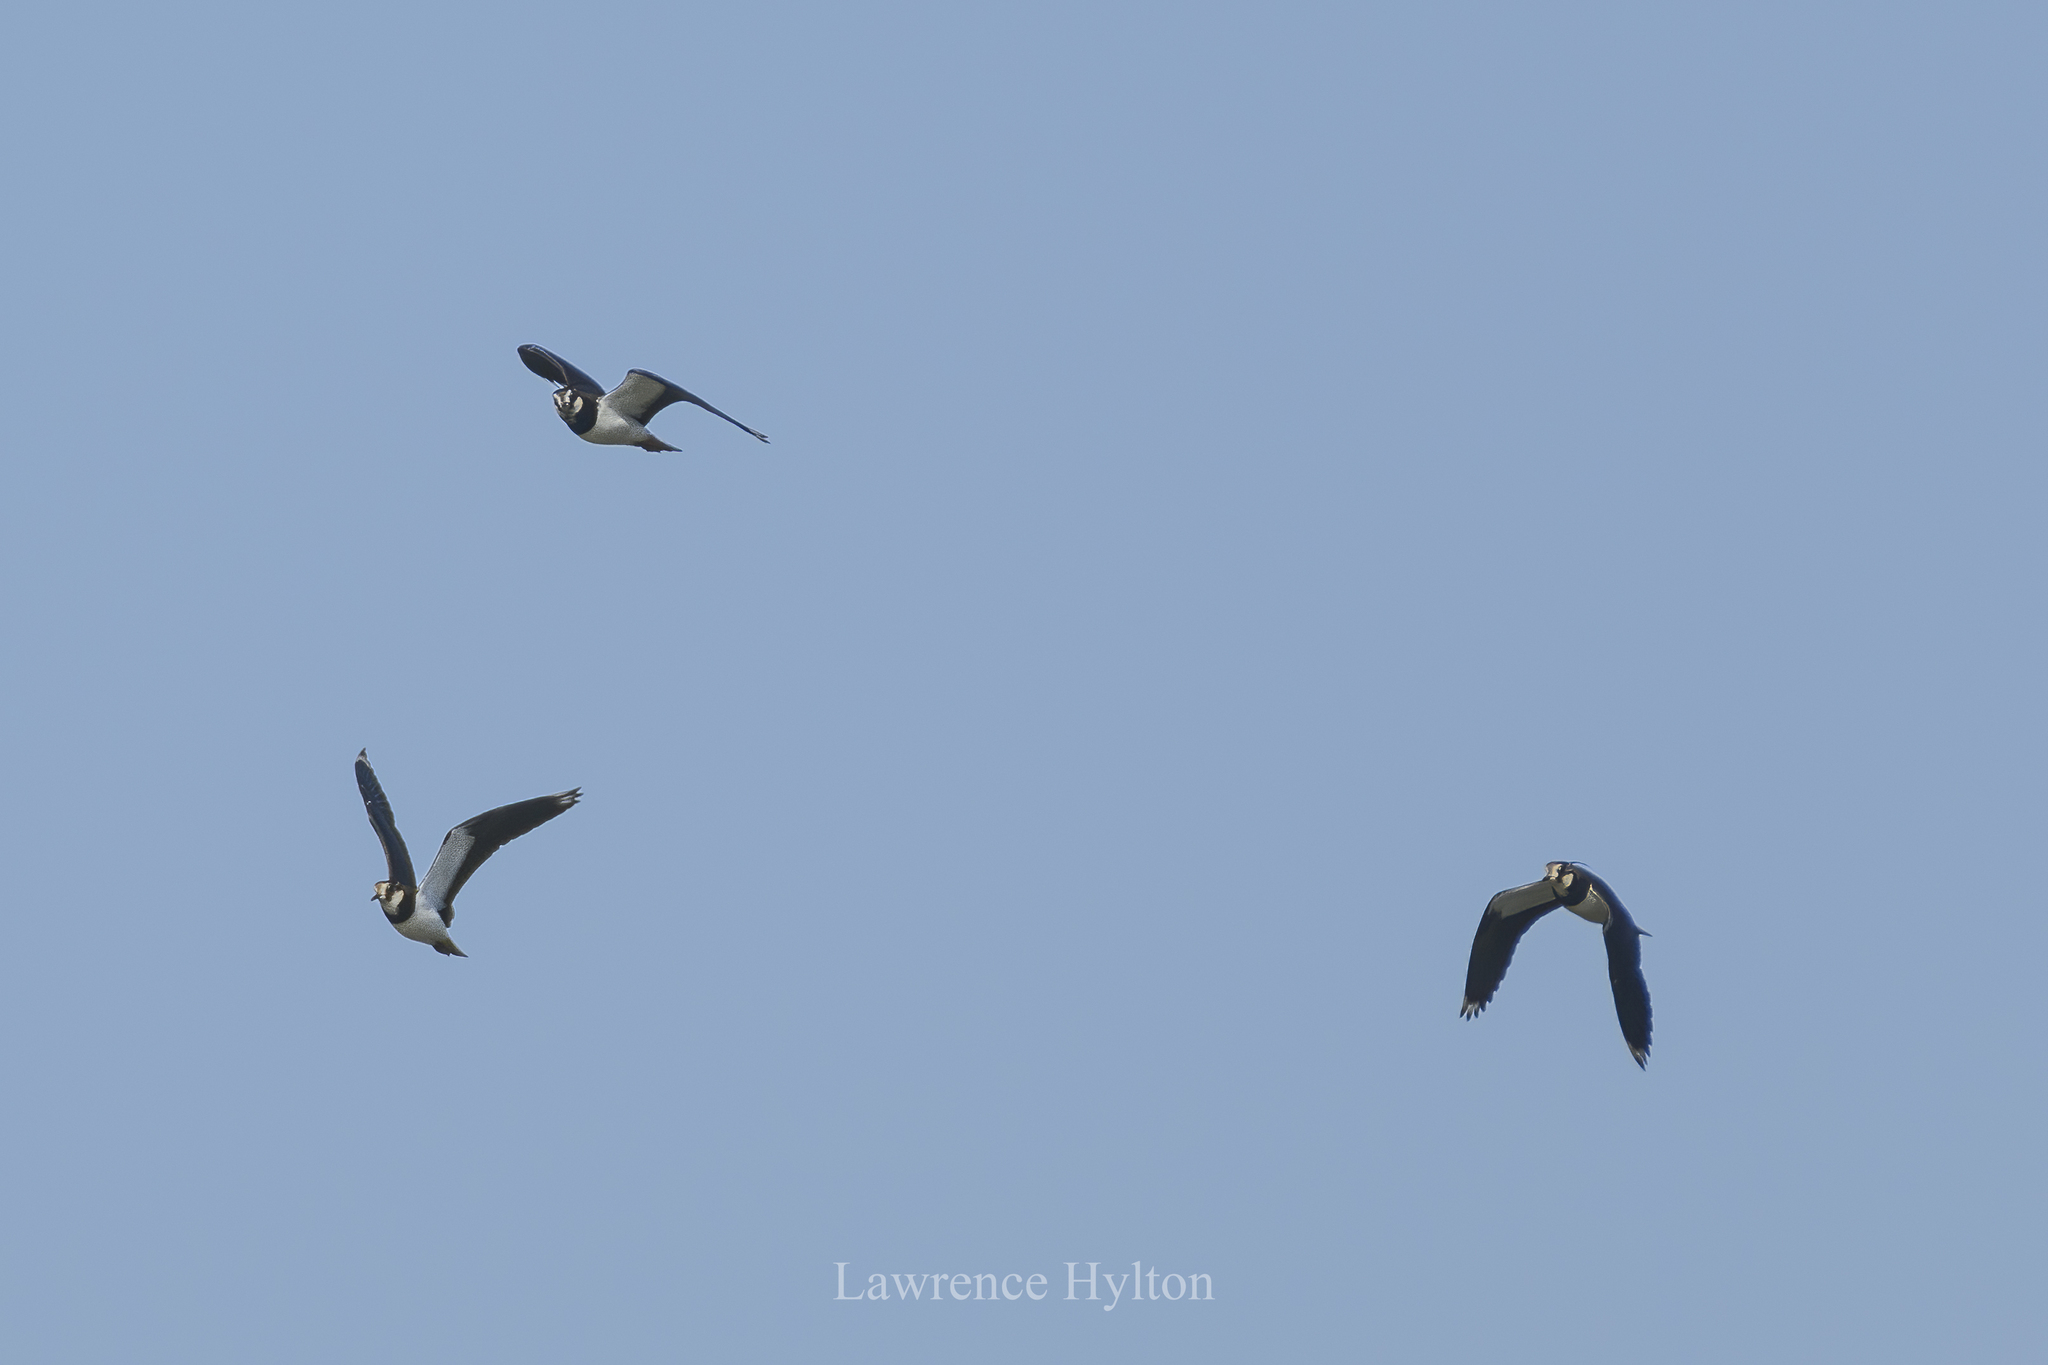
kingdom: Animalia
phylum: Chordata
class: Aves
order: Charadriiformes
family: Charadriidae
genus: Vanellus
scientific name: Vanellus vanellus
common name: Northern lapwing
